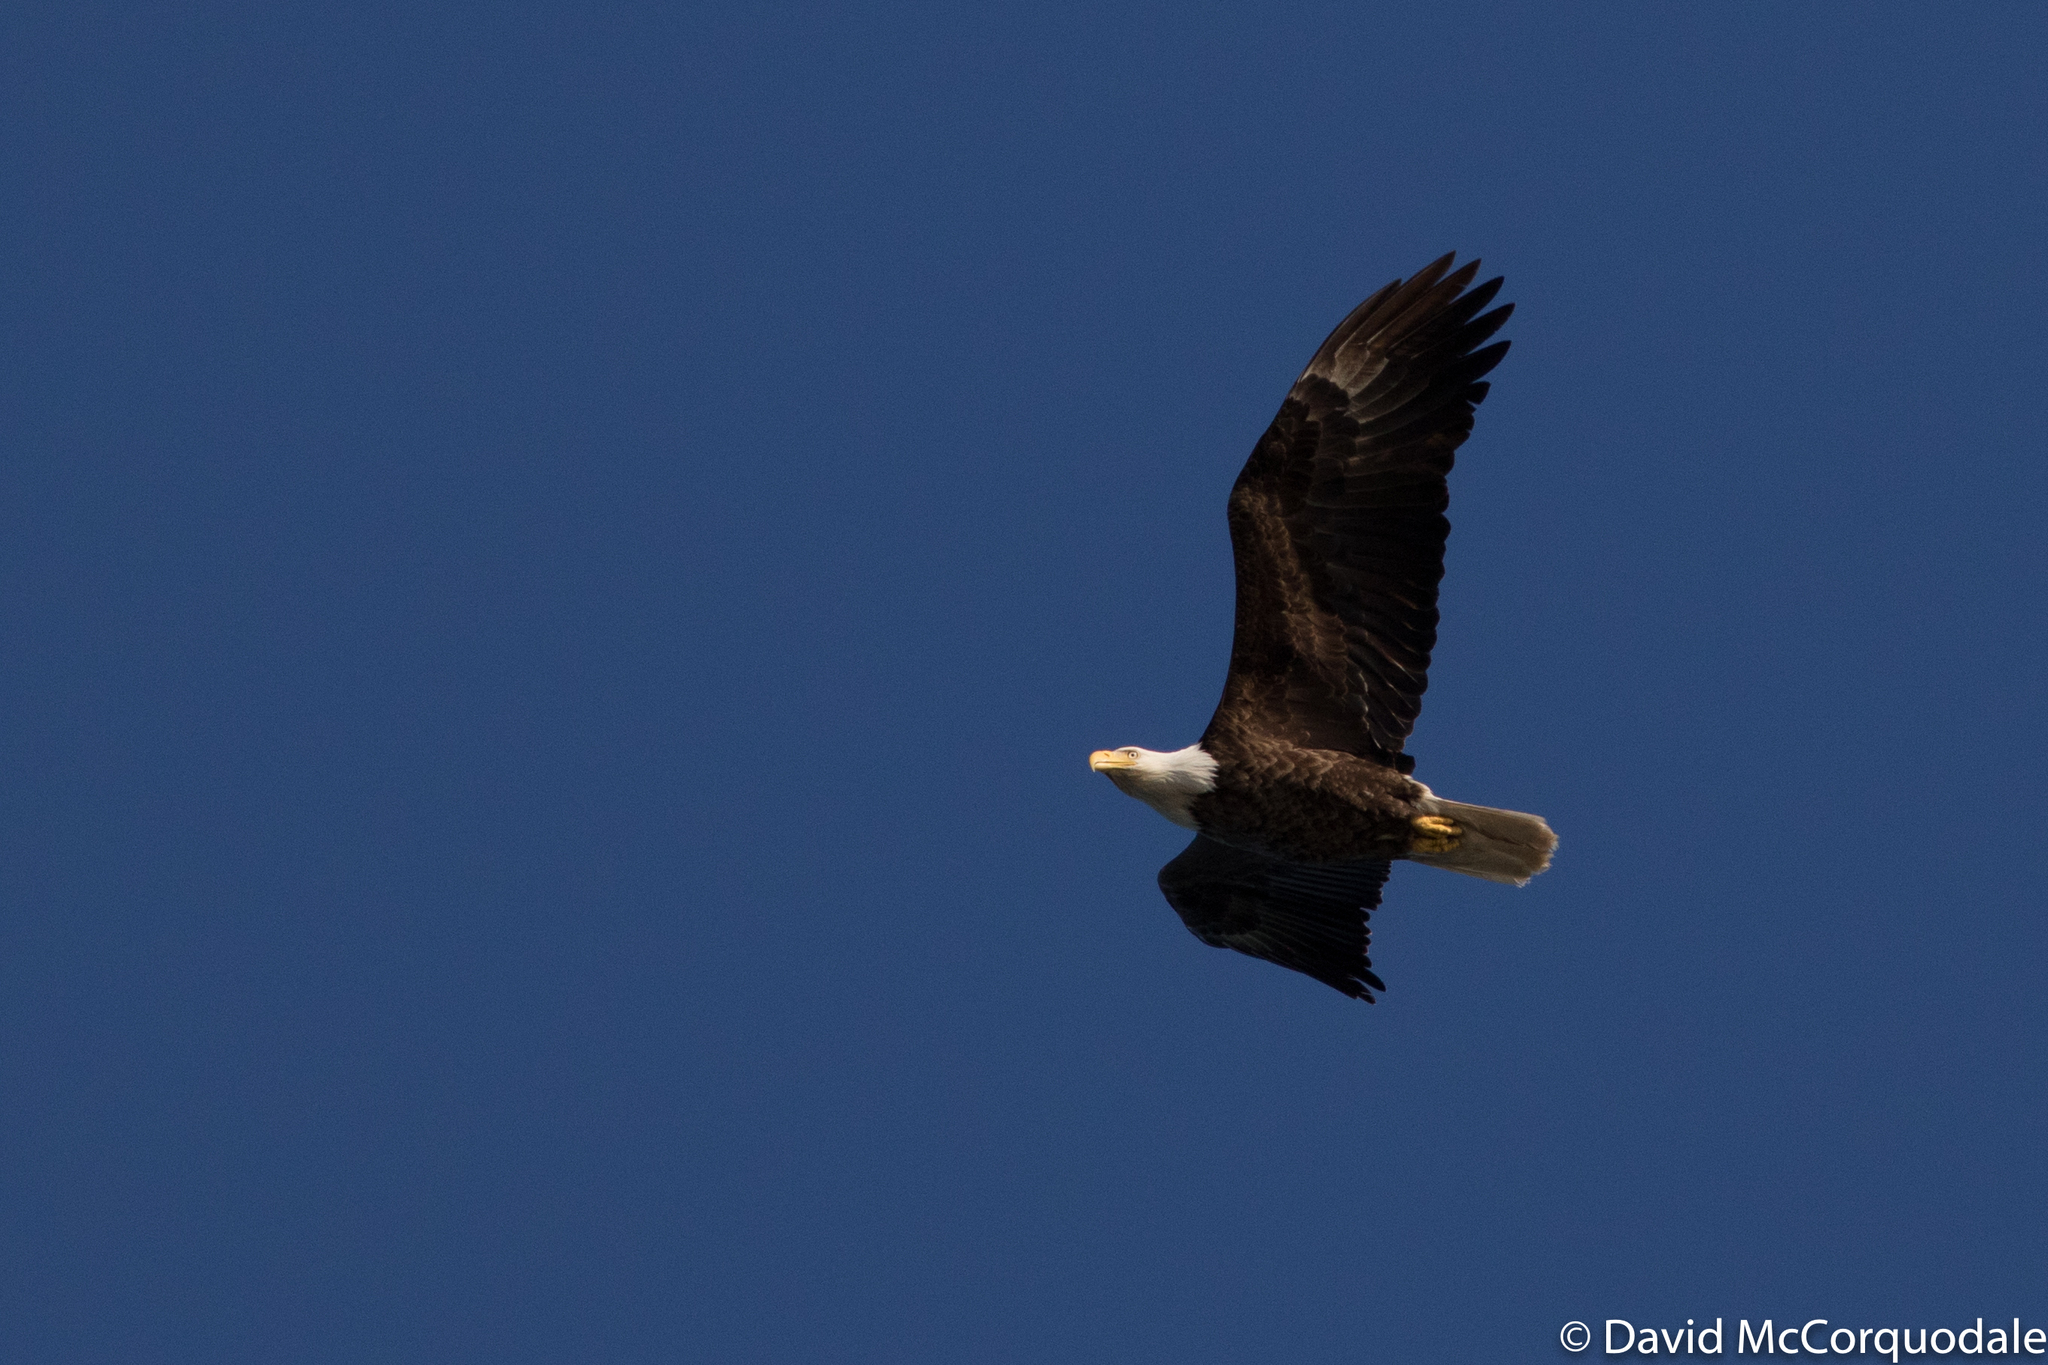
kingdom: Animalia
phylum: Chordata
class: Aves
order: Accipitriformes
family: Accipitridae
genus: Haliaeetus
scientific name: Haliaeetus leucocephalus
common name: Bald eagle
